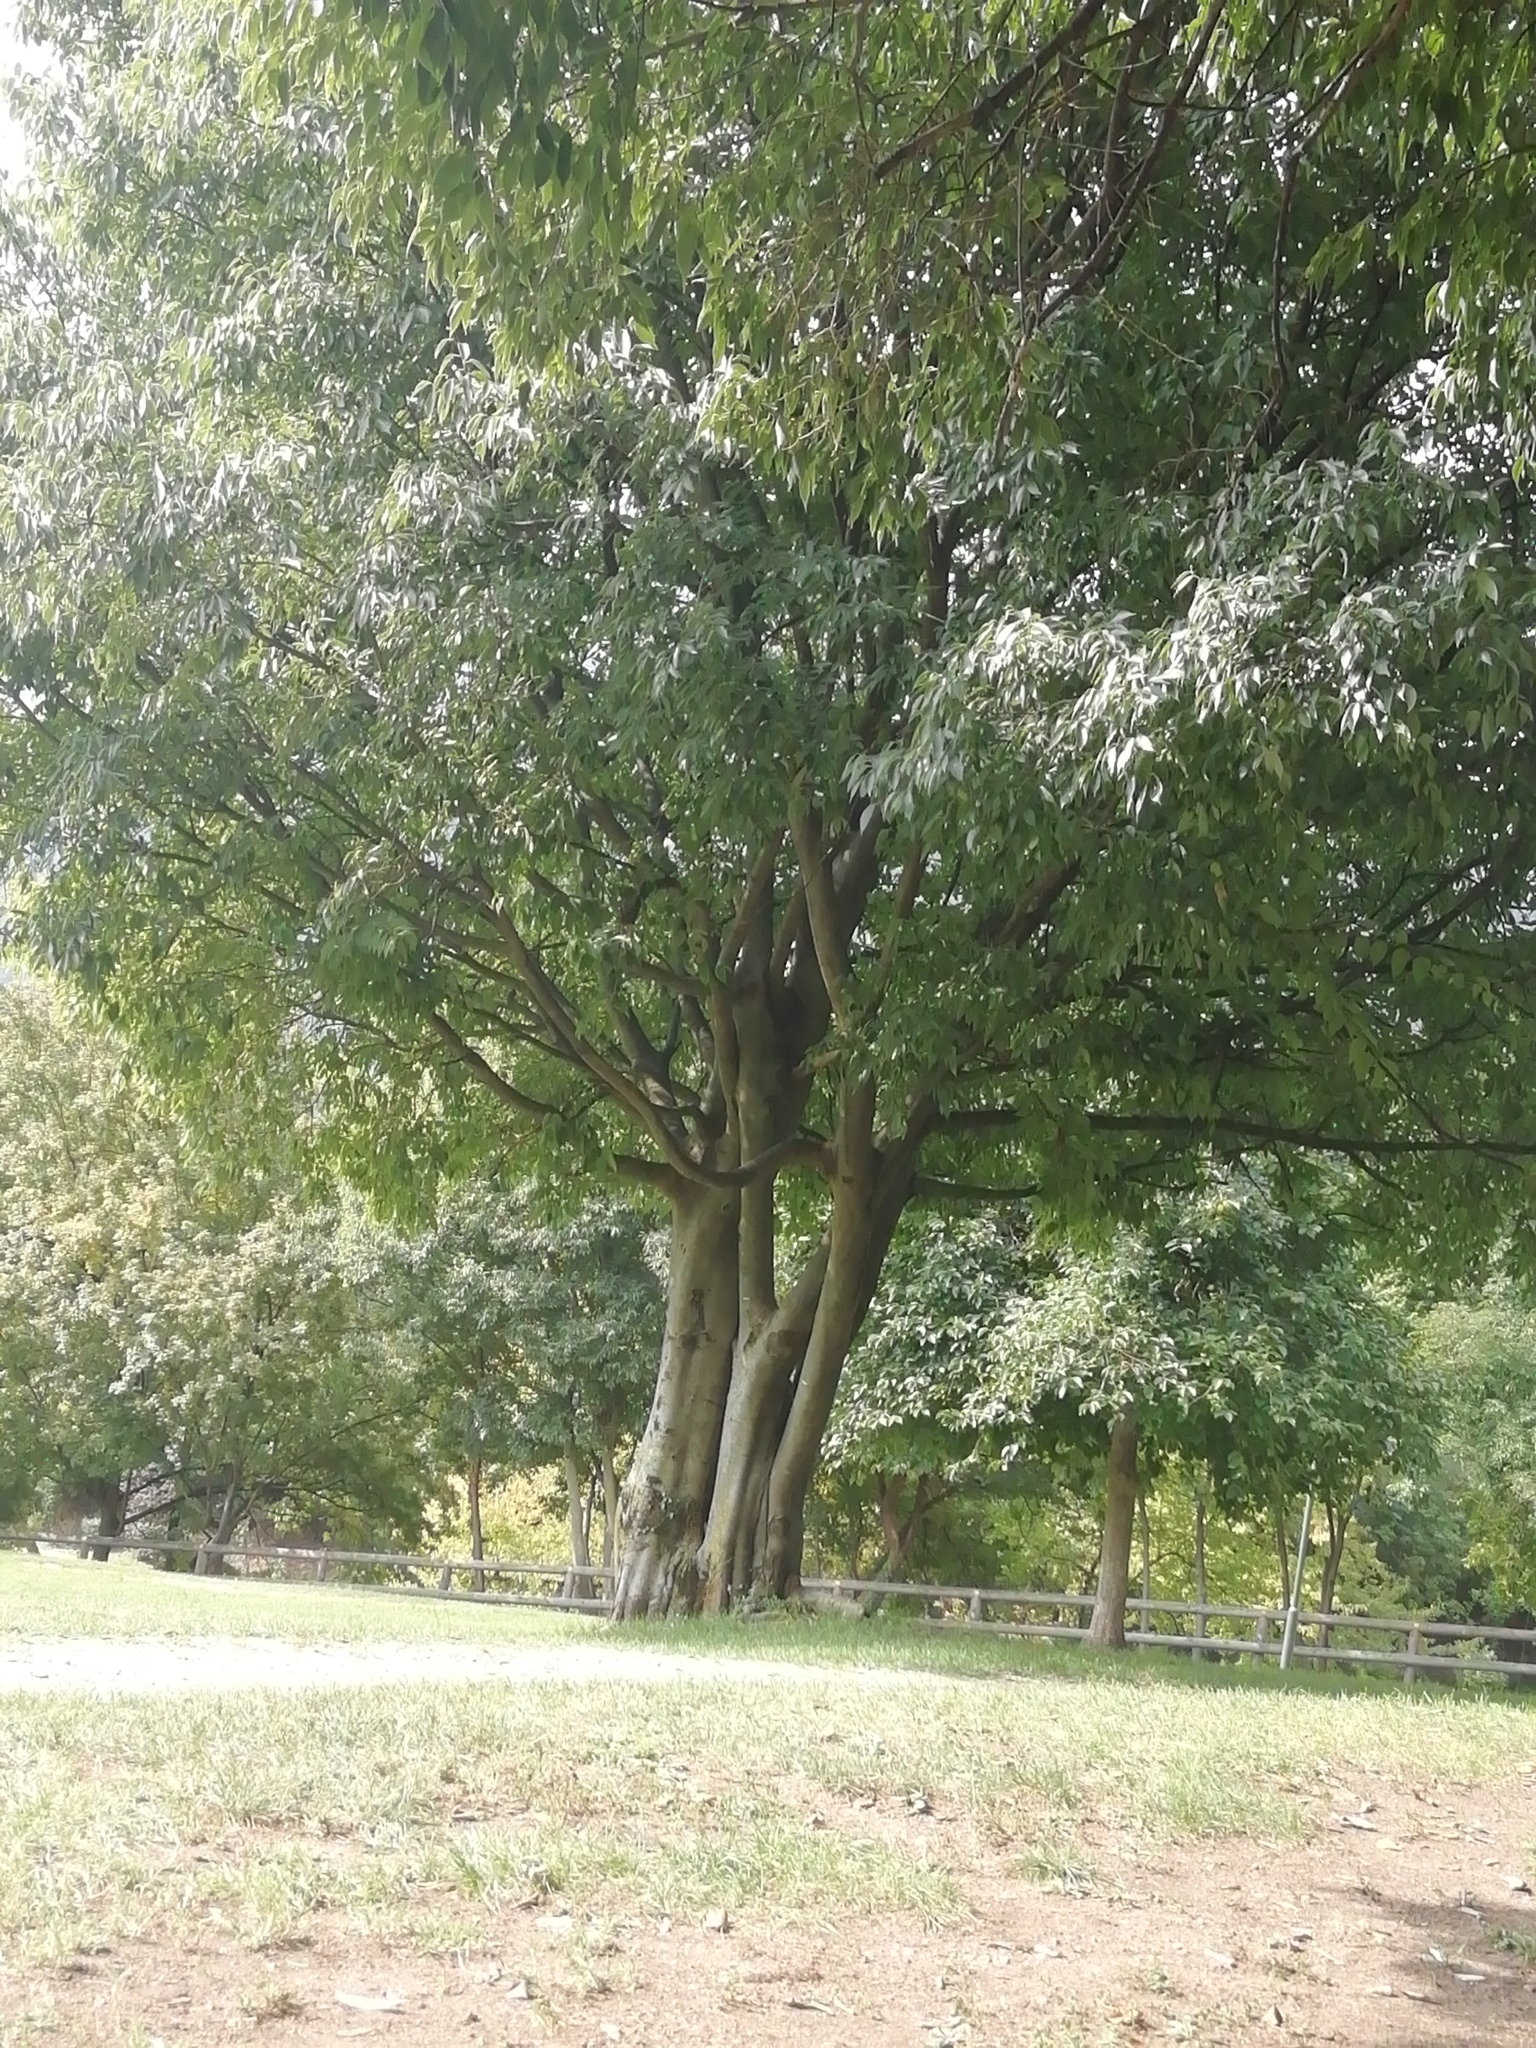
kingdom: Plantae
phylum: Tracheophyta
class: Magnoliopsida
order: Rosales
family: Cannabaceae
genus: Celtis
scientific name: Celtis australis
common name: European hackberry
